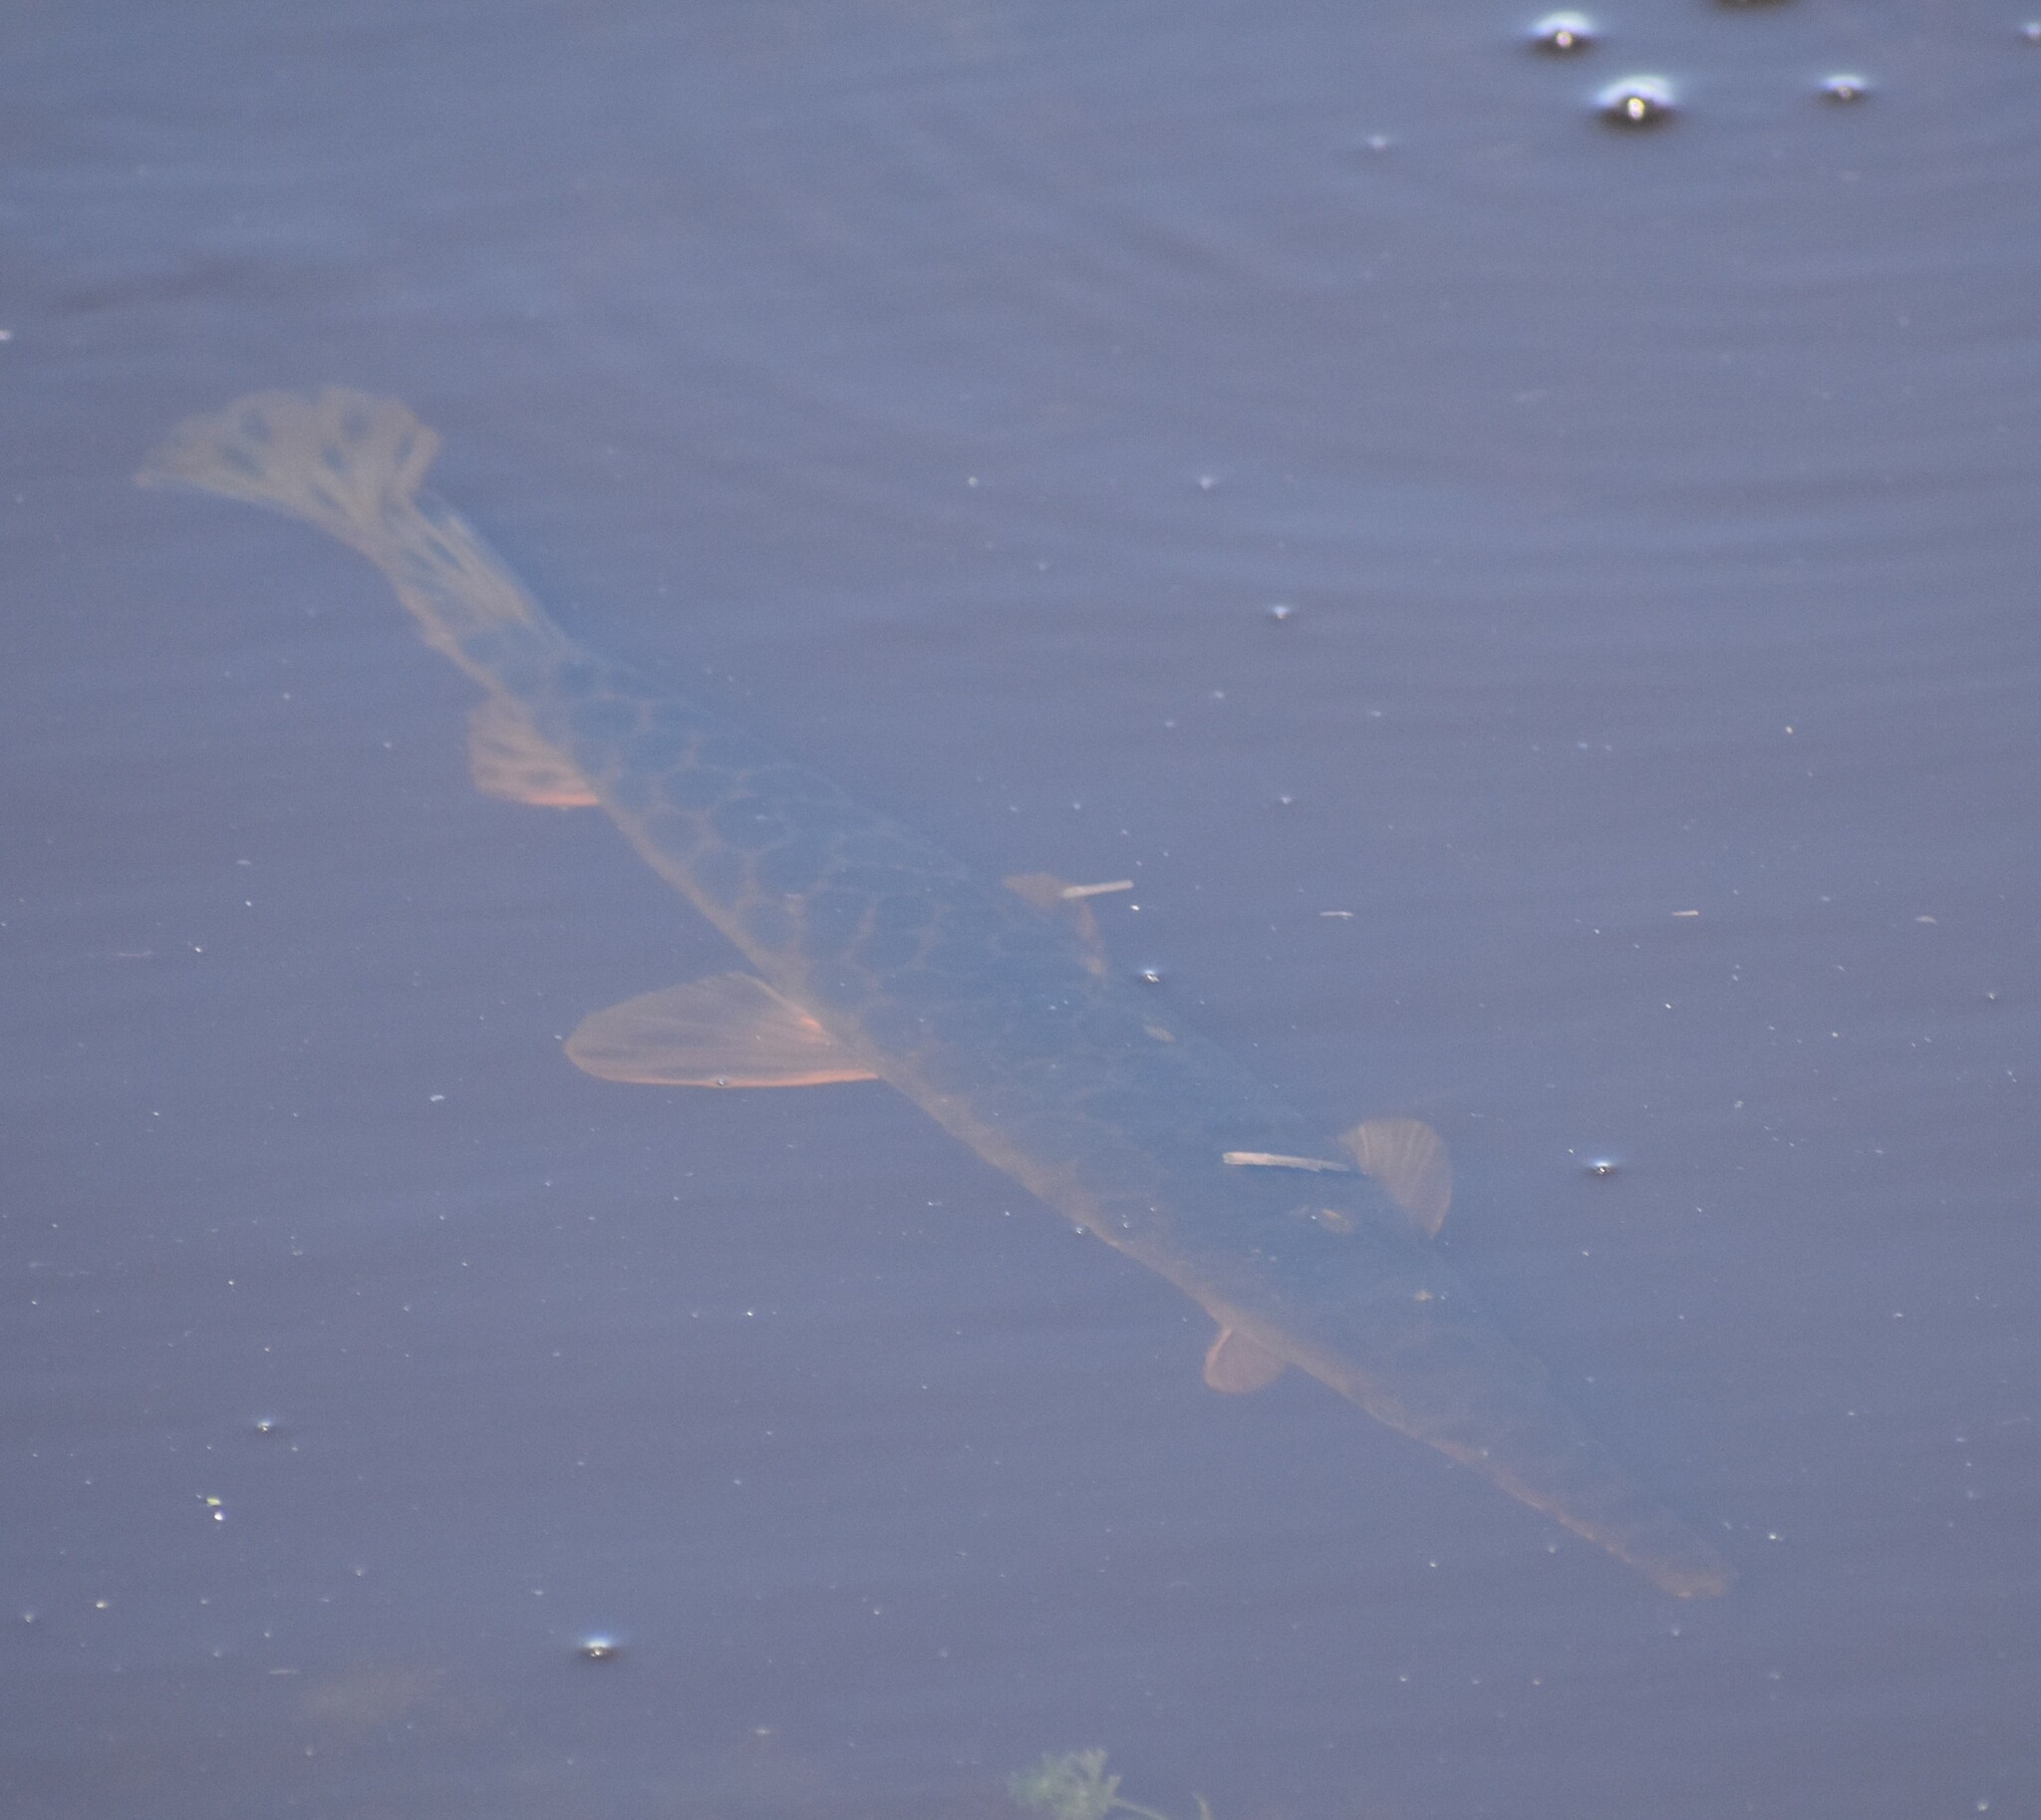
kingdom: Animalia
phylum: Chordata
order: Lepisosteiformes
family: Lepisosteidae
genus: Lepisosteus
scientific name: Lepisosteus oculatus
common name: Spotted gar
